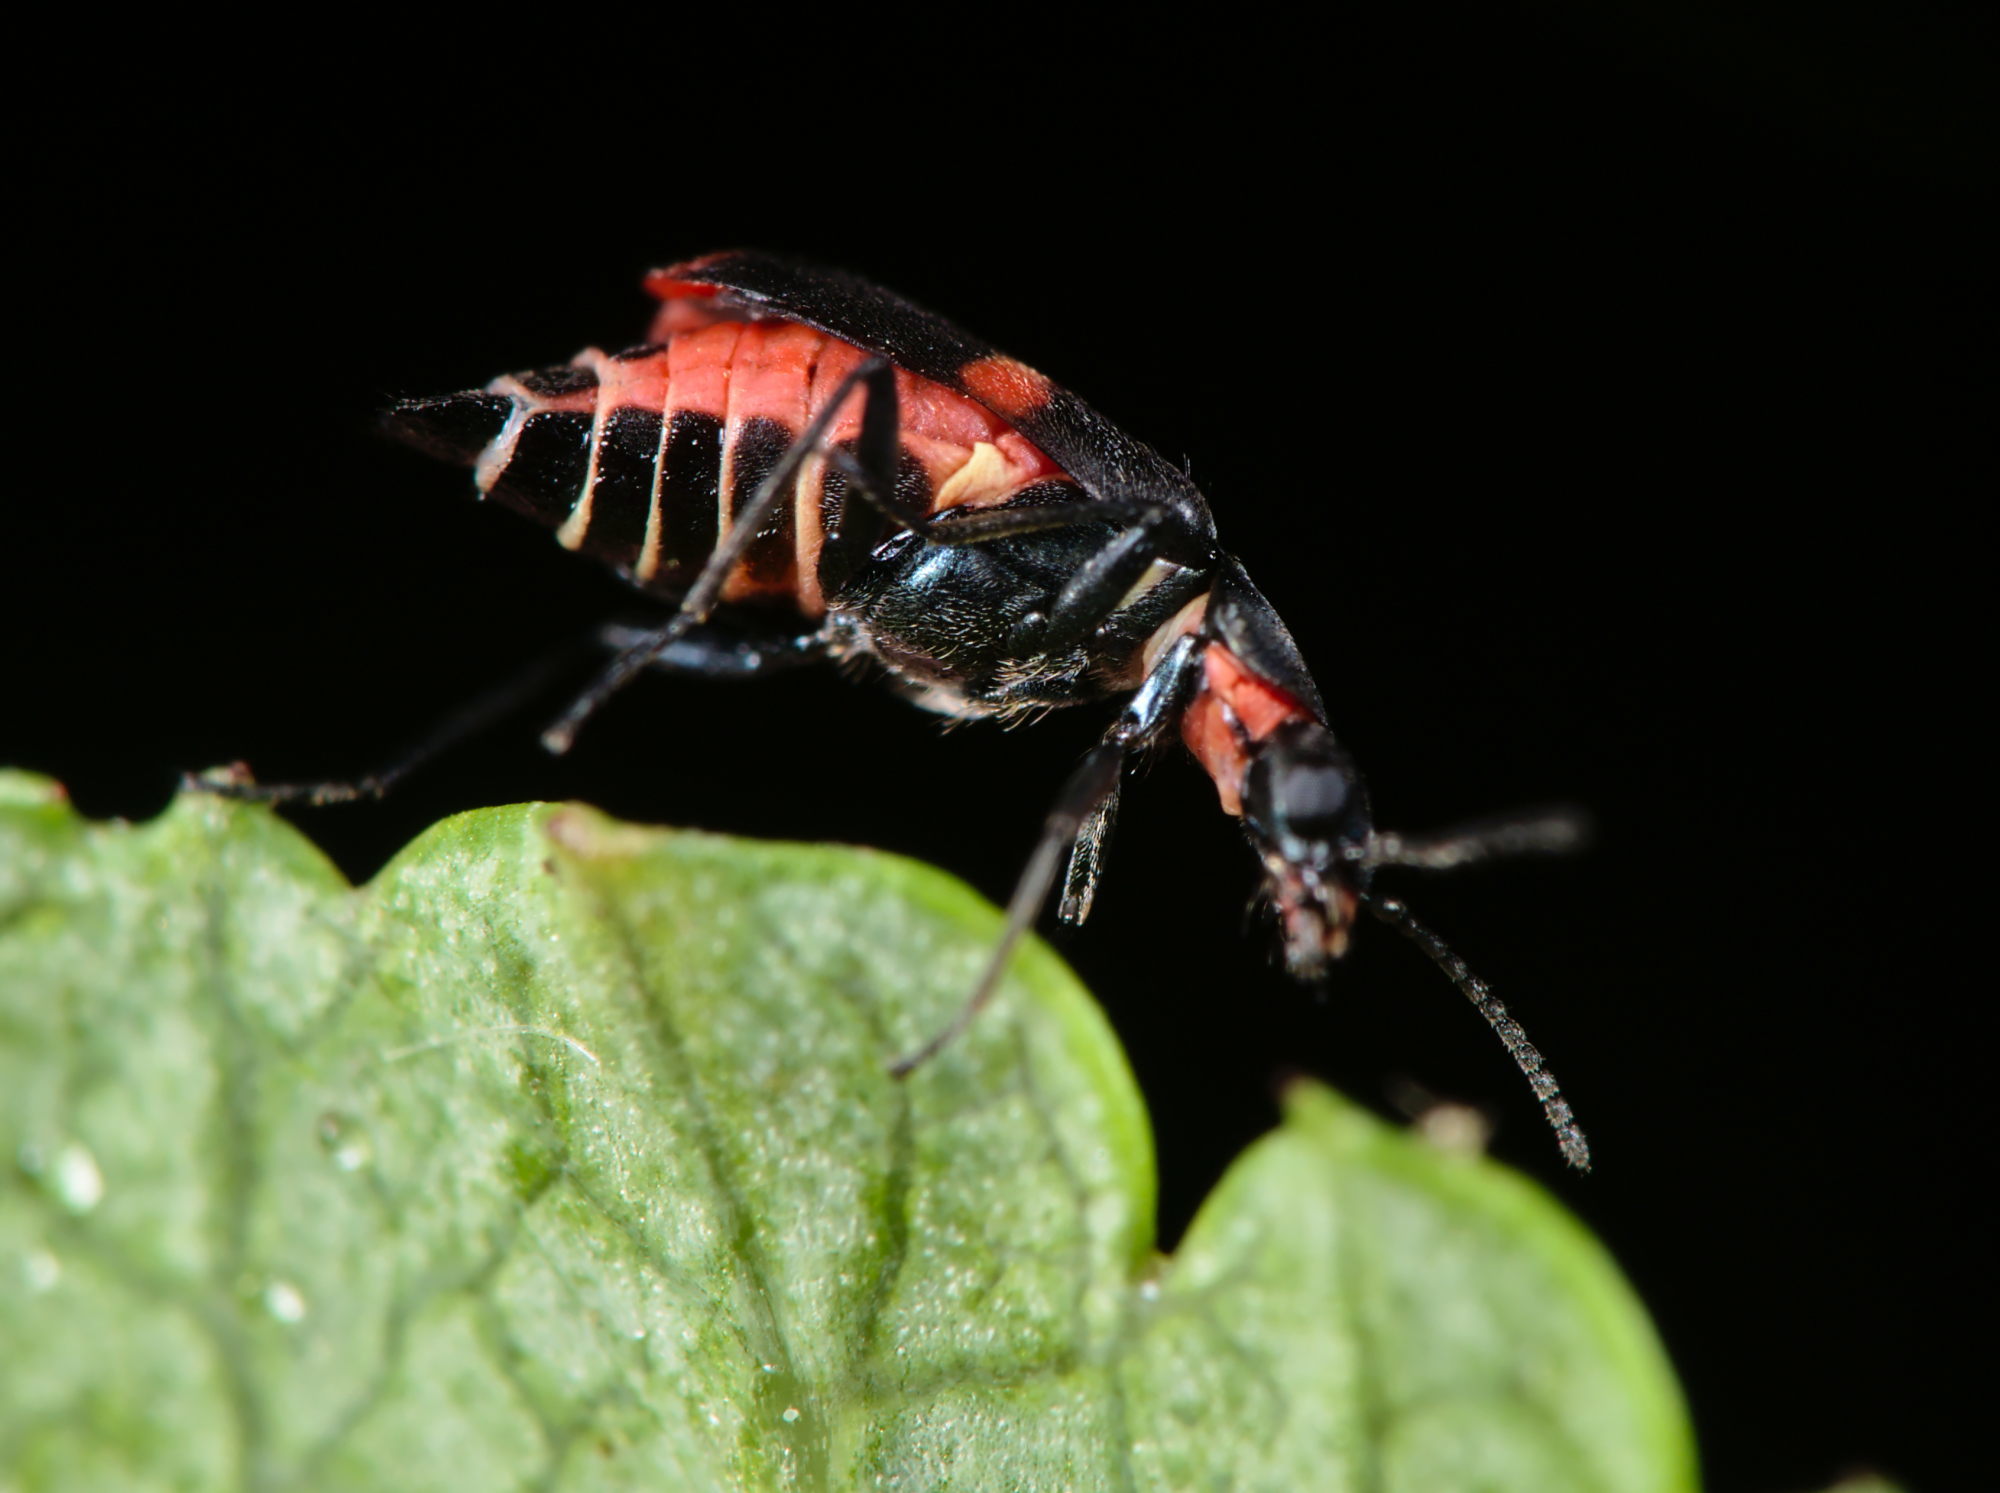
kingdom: Animalia
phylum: Arthropoda
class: Insecta
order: Coleoptera
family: Melyridae
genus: Anthocomus
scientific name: Anthocomus fasciatus
